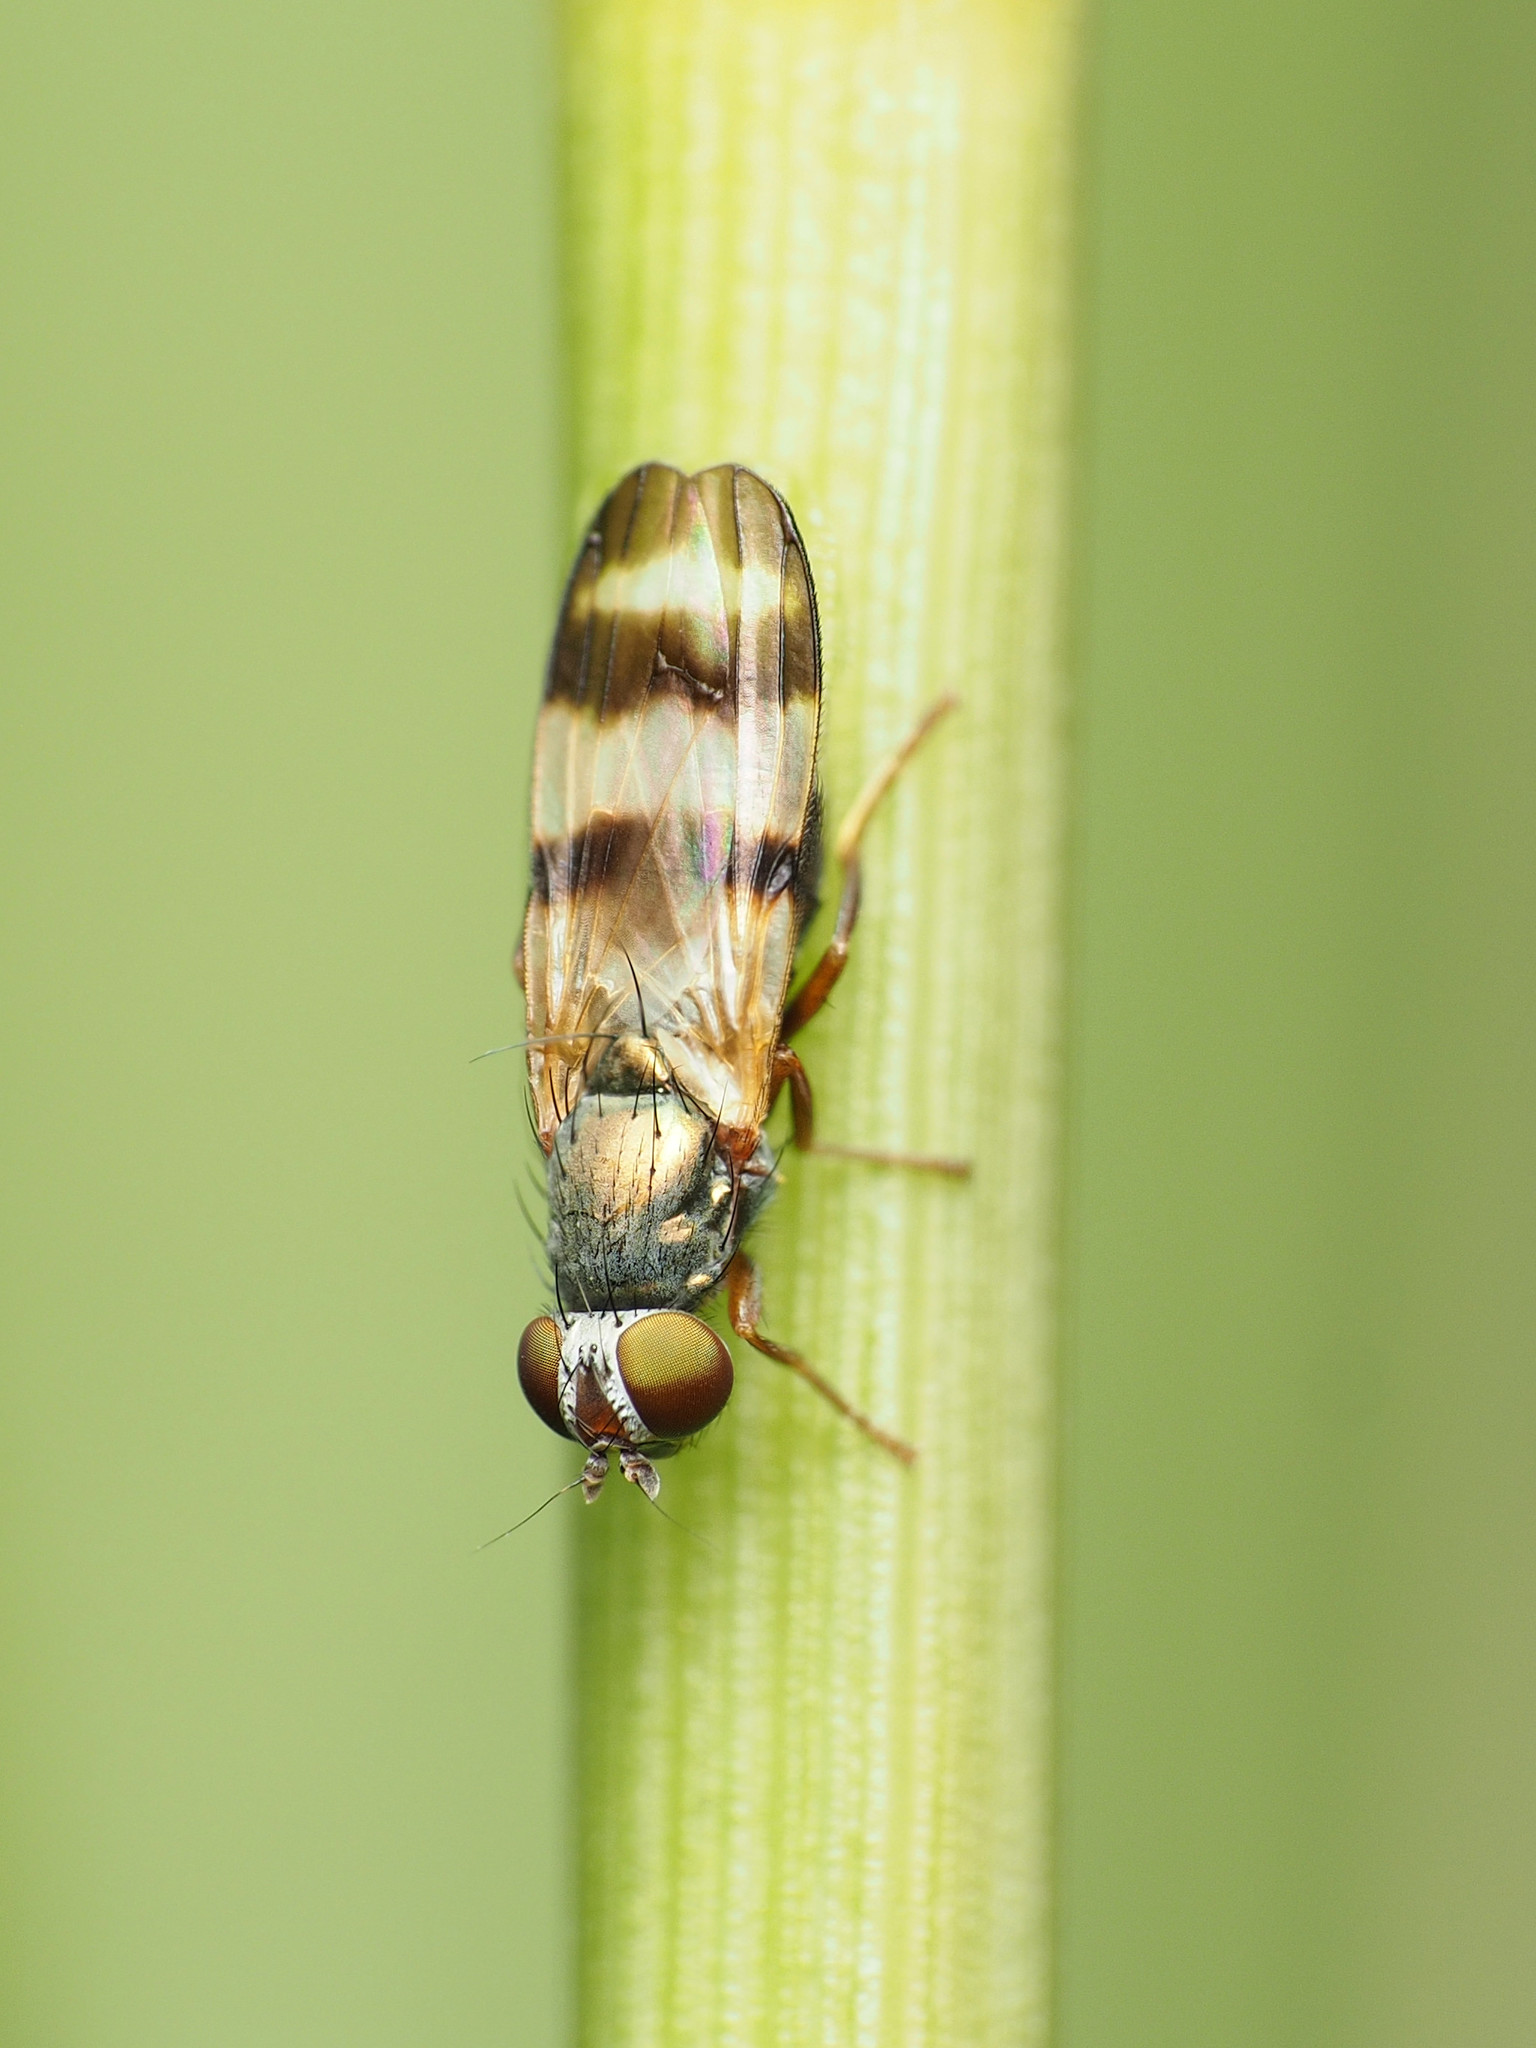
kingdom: Animalia
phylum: Arthropoda
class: Insecta
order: Diptera
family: Ulidiidae
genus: Chaetopsis
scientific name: Chaetopsis fulvifrons
